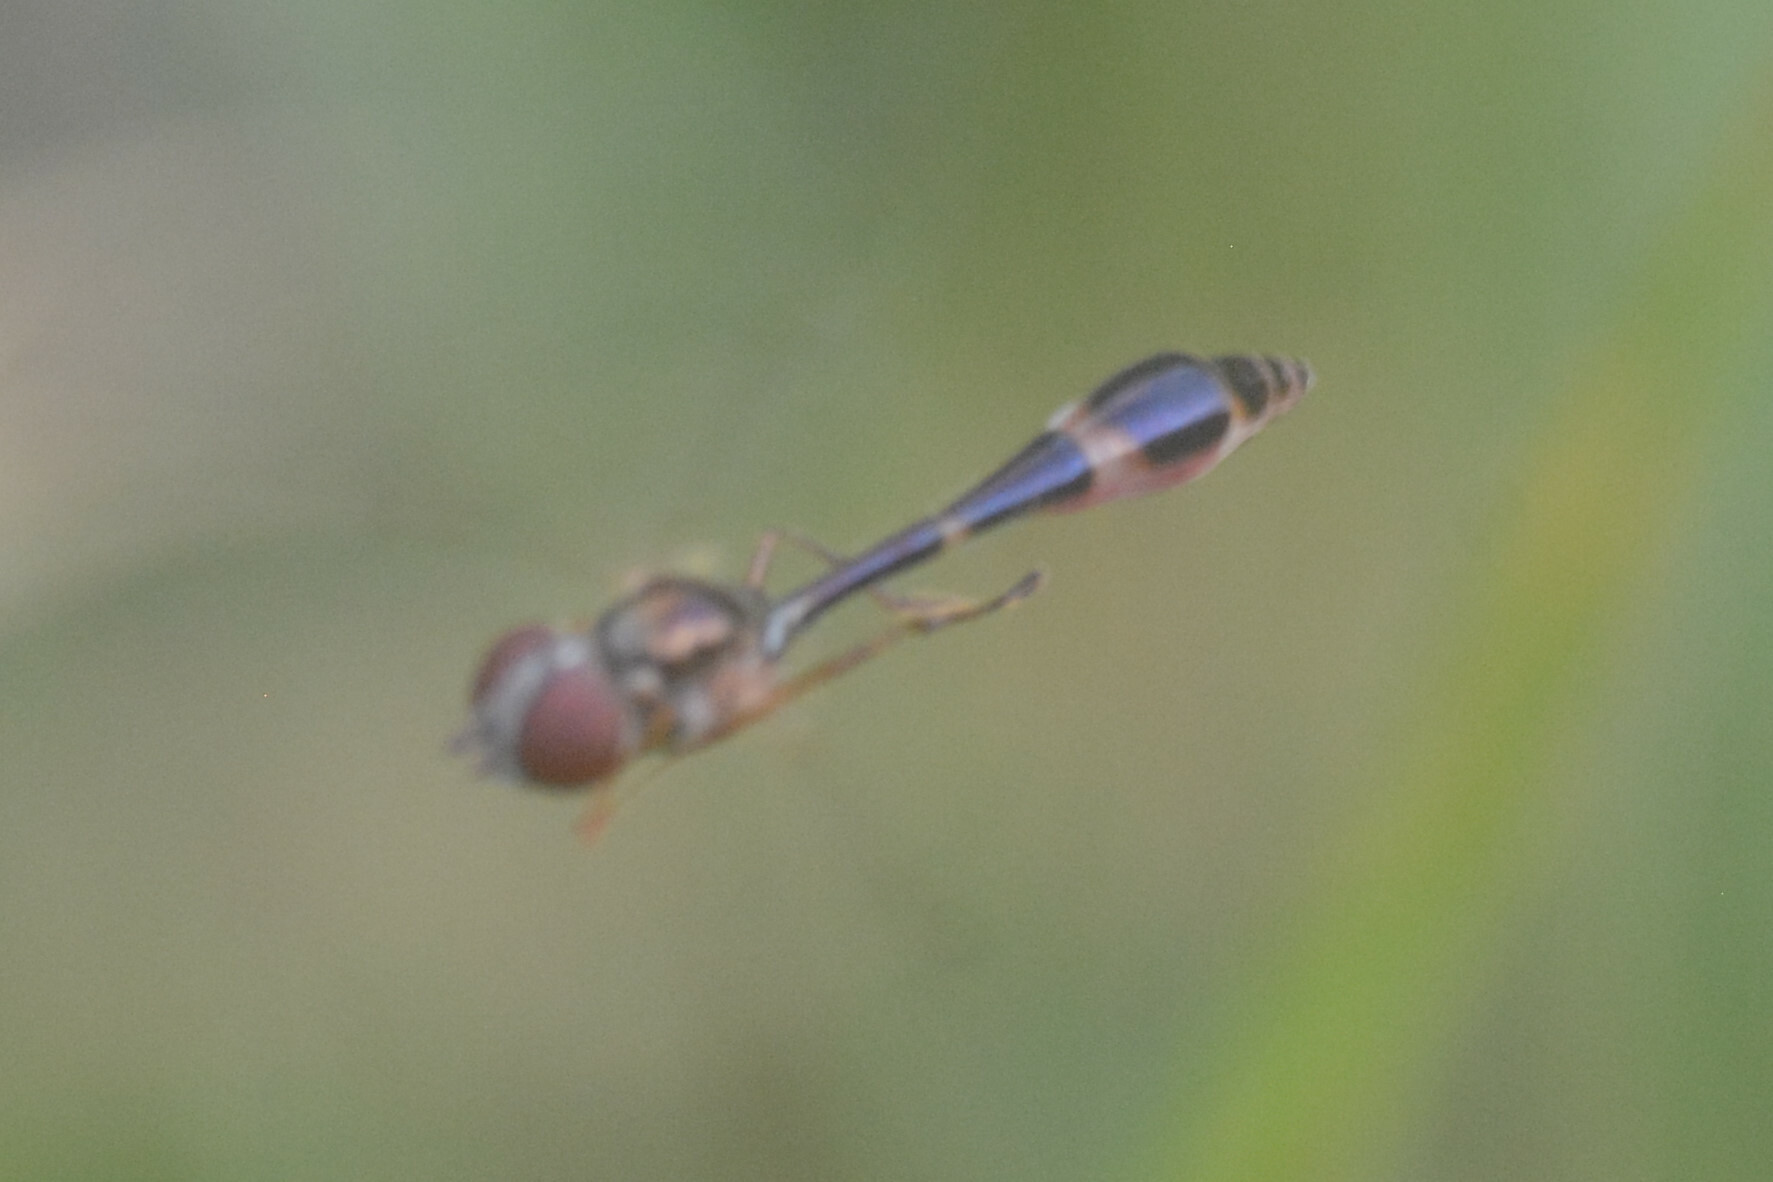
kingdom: Animalia
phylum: Arthropoda
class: Insecta
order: Diptera
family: Syrphidae
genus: Baccha
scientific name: Baccha elongata
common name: Common dainty
